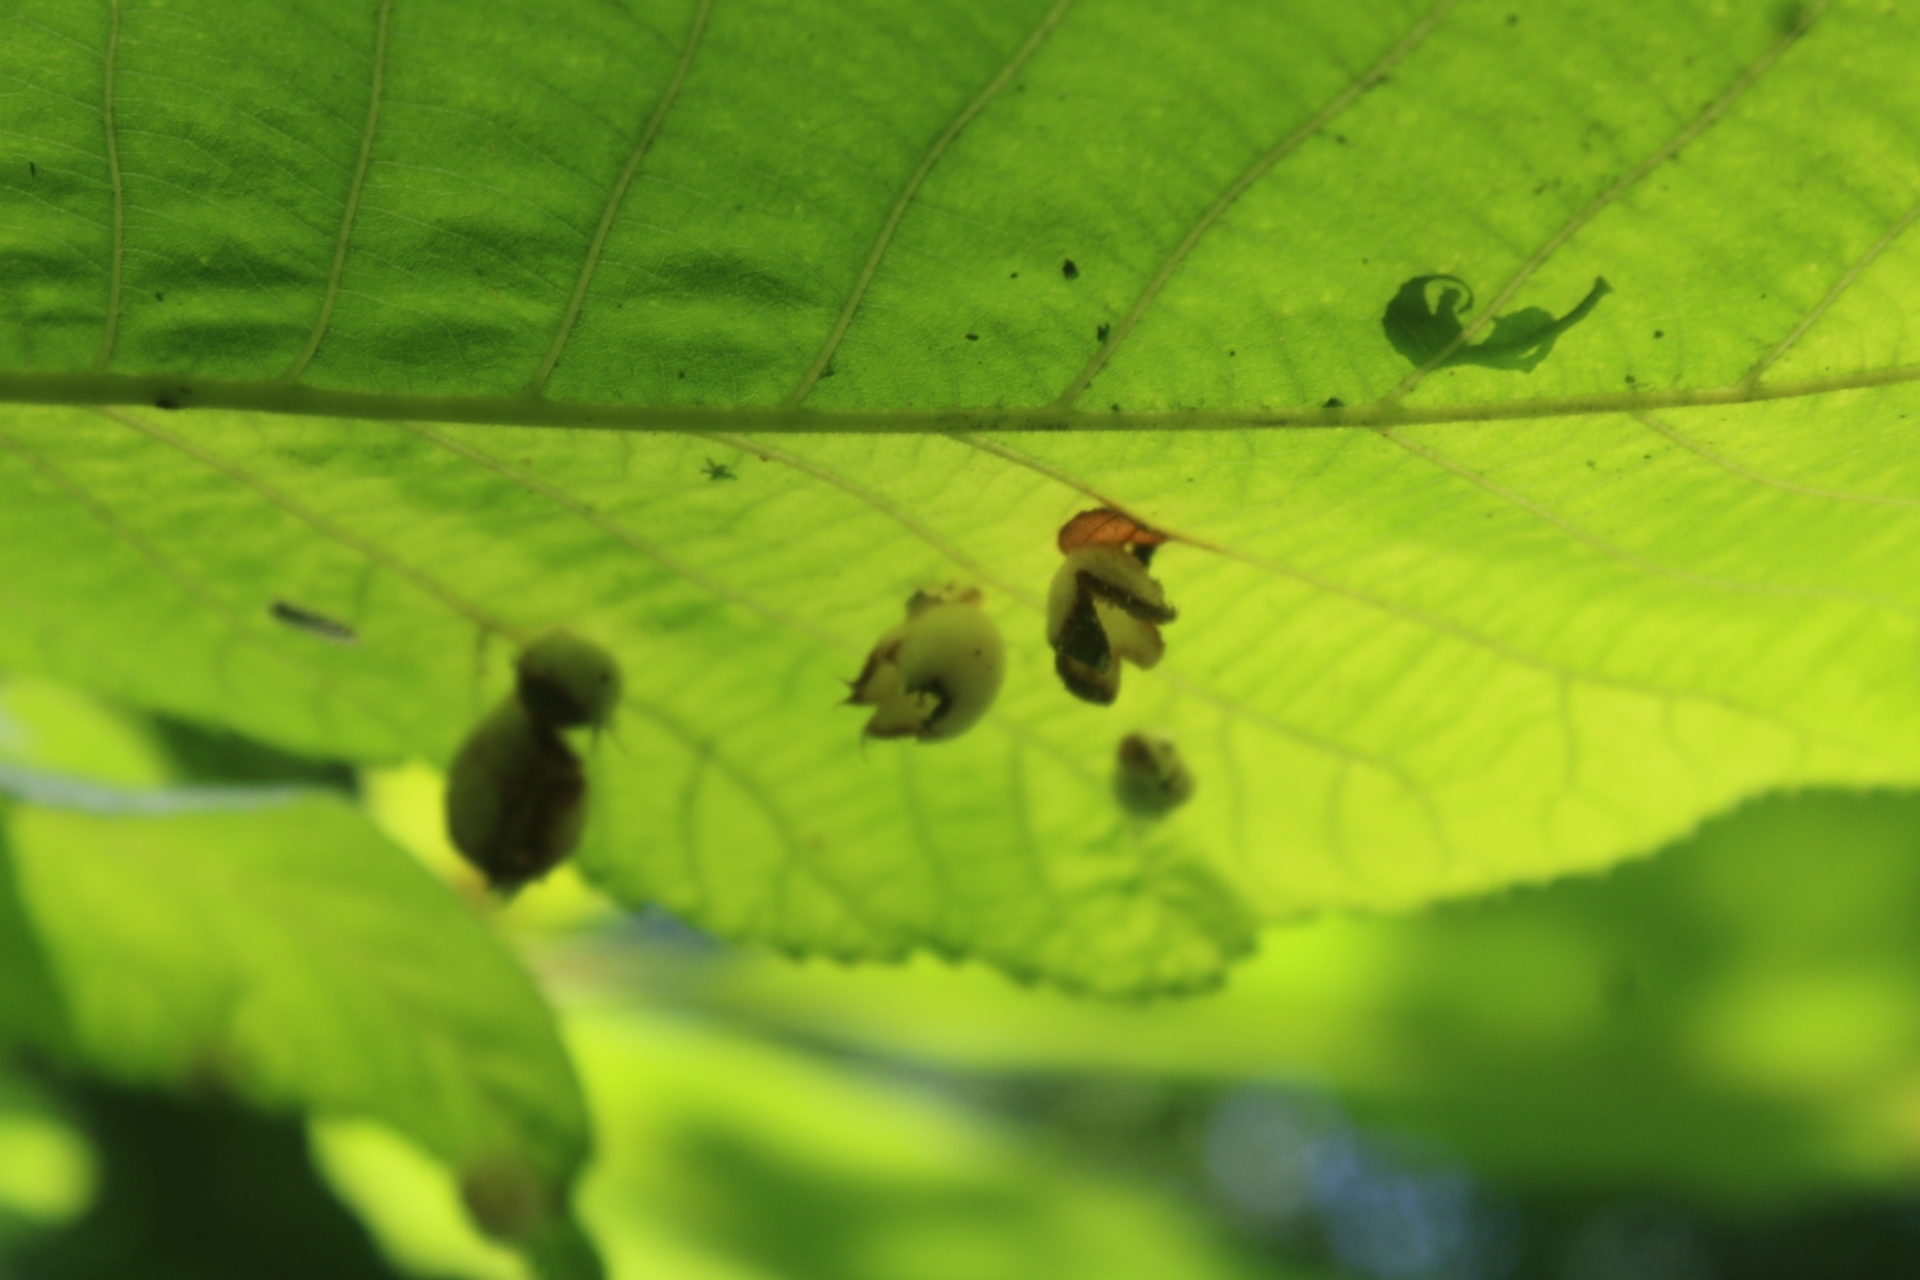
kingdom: Animalia
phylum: Arthropoda
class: Insecta
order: Hemiptera
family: Phylloxeridae
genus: Phylloxera
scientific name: Phylloxera caryaegummosa
